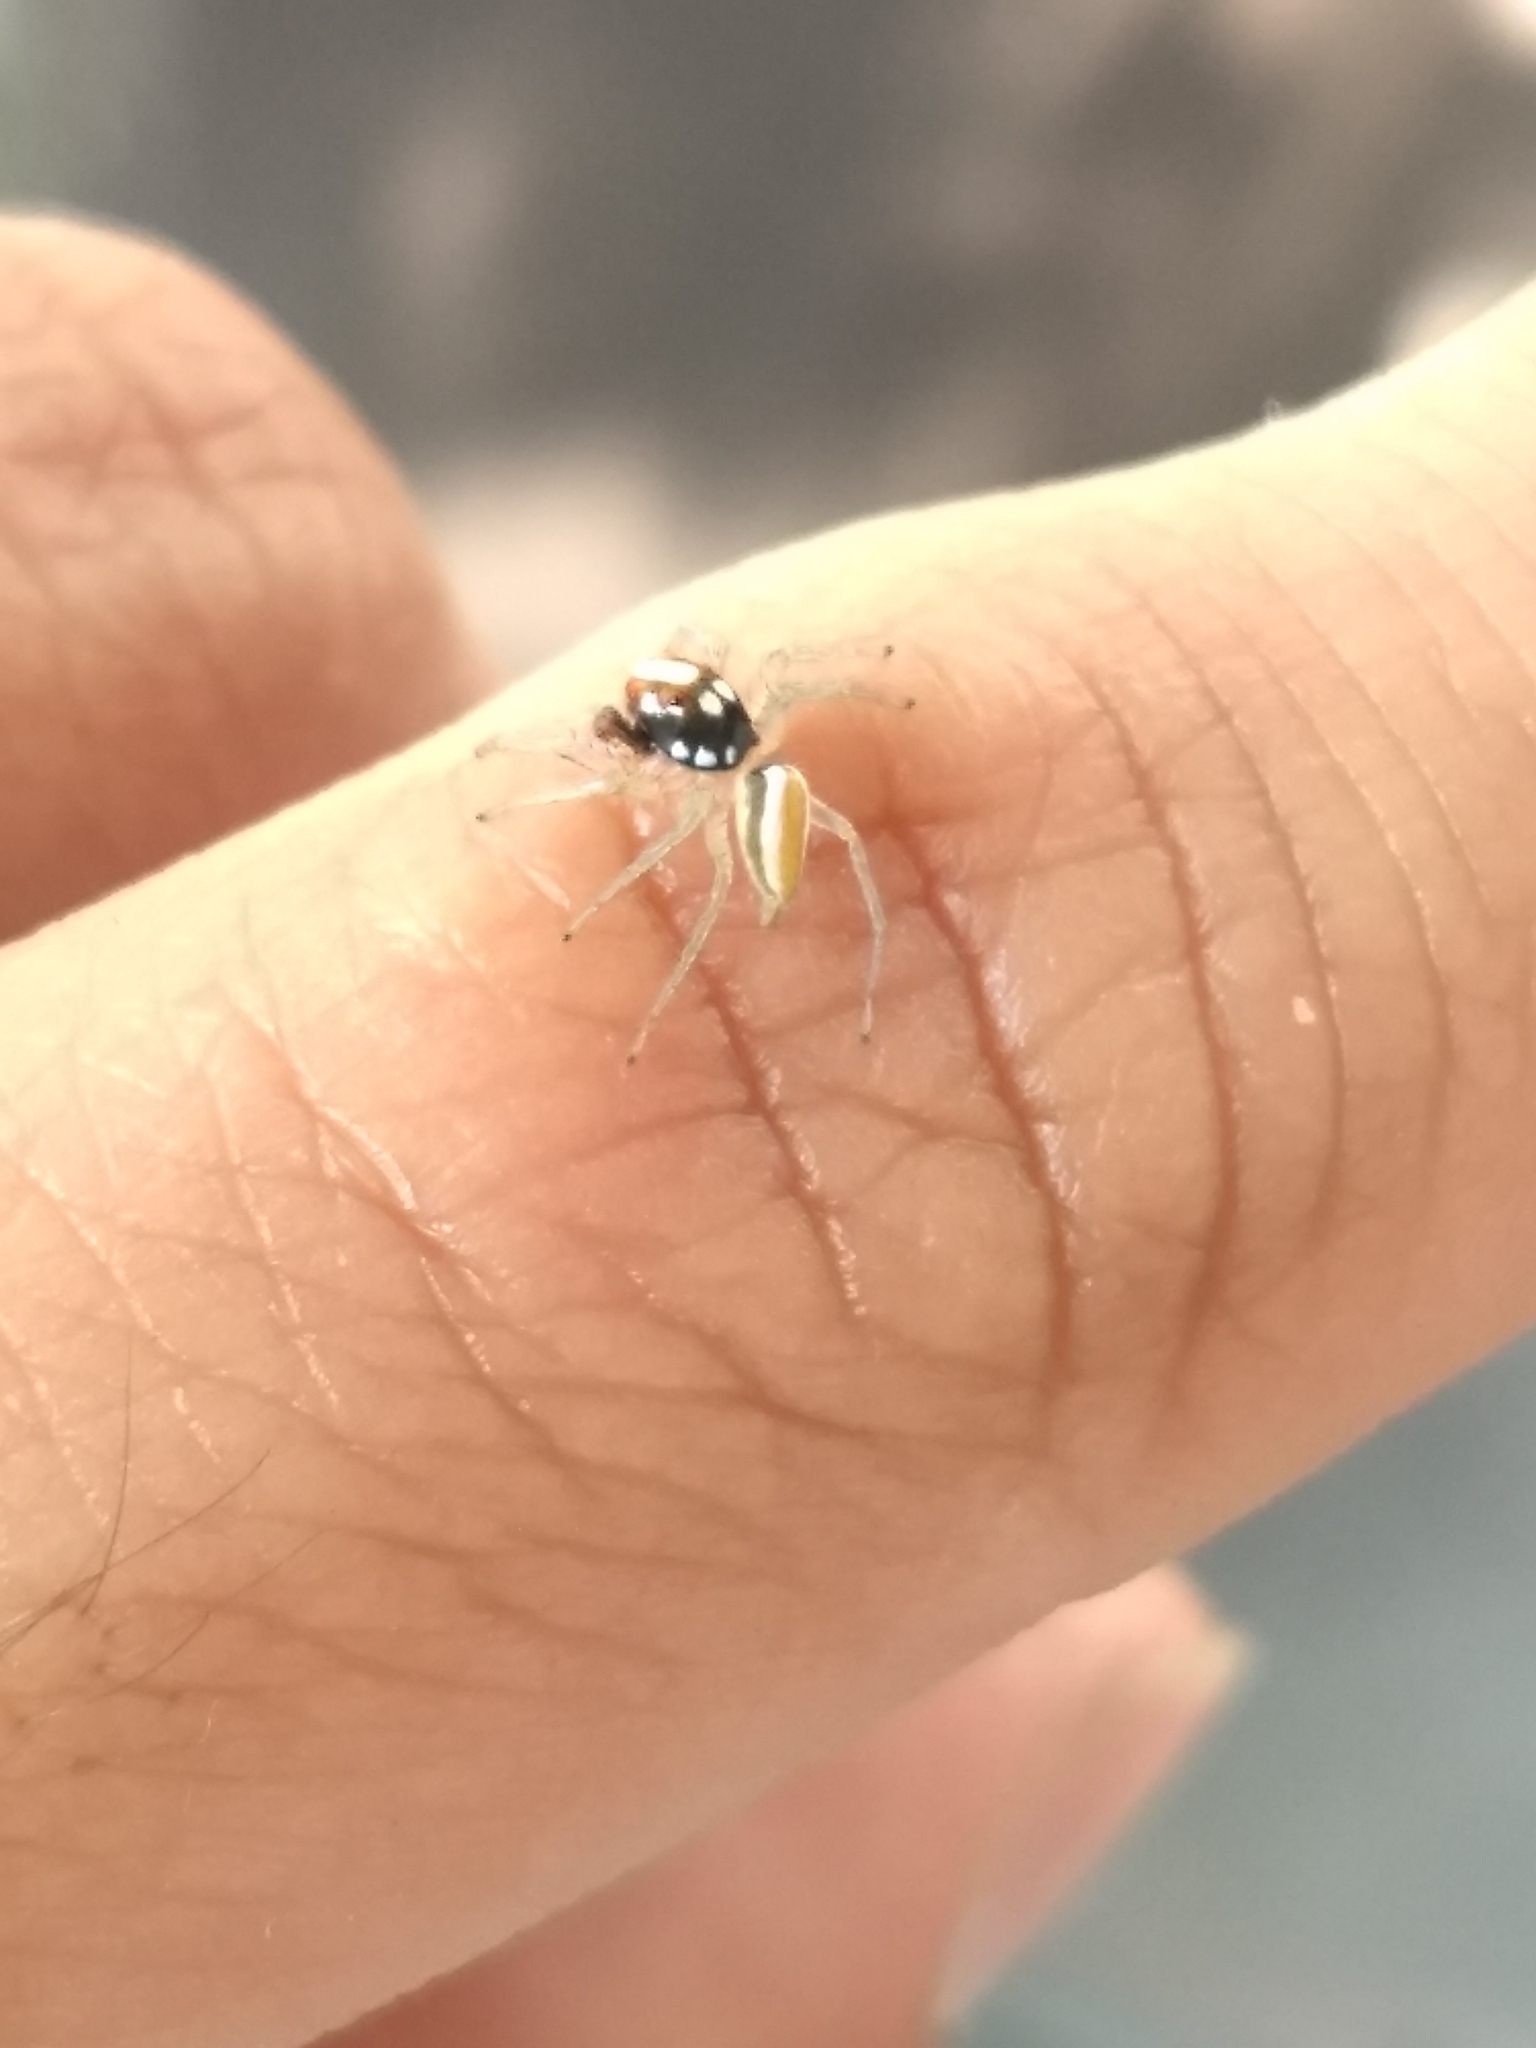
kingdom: Animalia
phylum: Arthropoda
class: Arachnida
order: Araneae
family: Salticidae
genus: Chira
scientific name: Chira spinosa
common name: Jumping spiders
